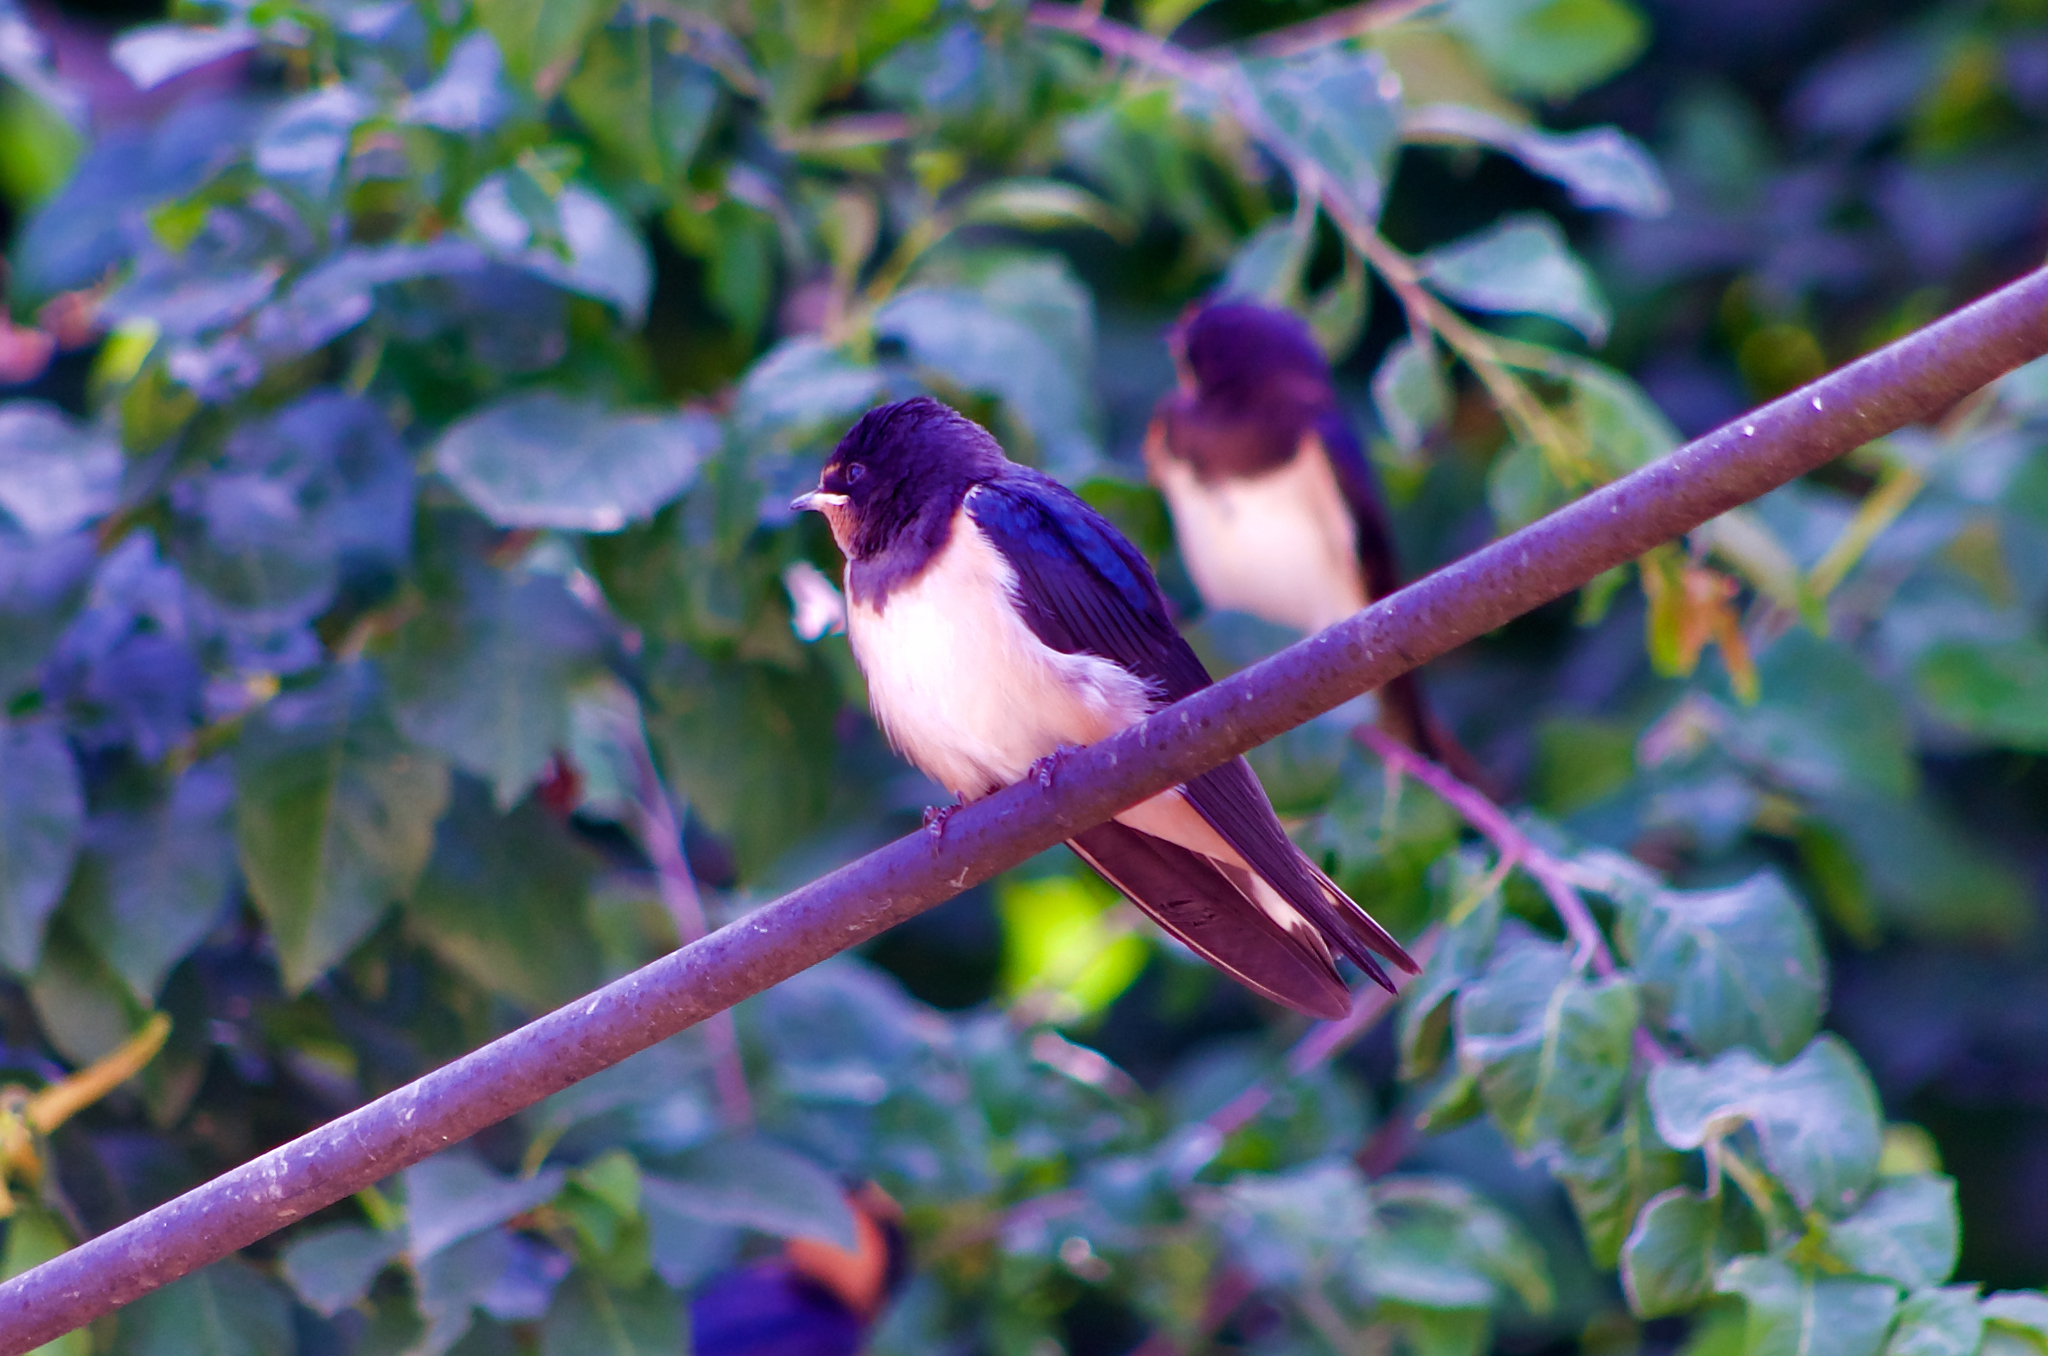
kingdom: Animalia
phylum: Chordata
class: Aves
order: Passeriformes
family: Hirundinidae
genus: Hirundo
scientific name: Hirundo rustica
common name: Barn swallow
